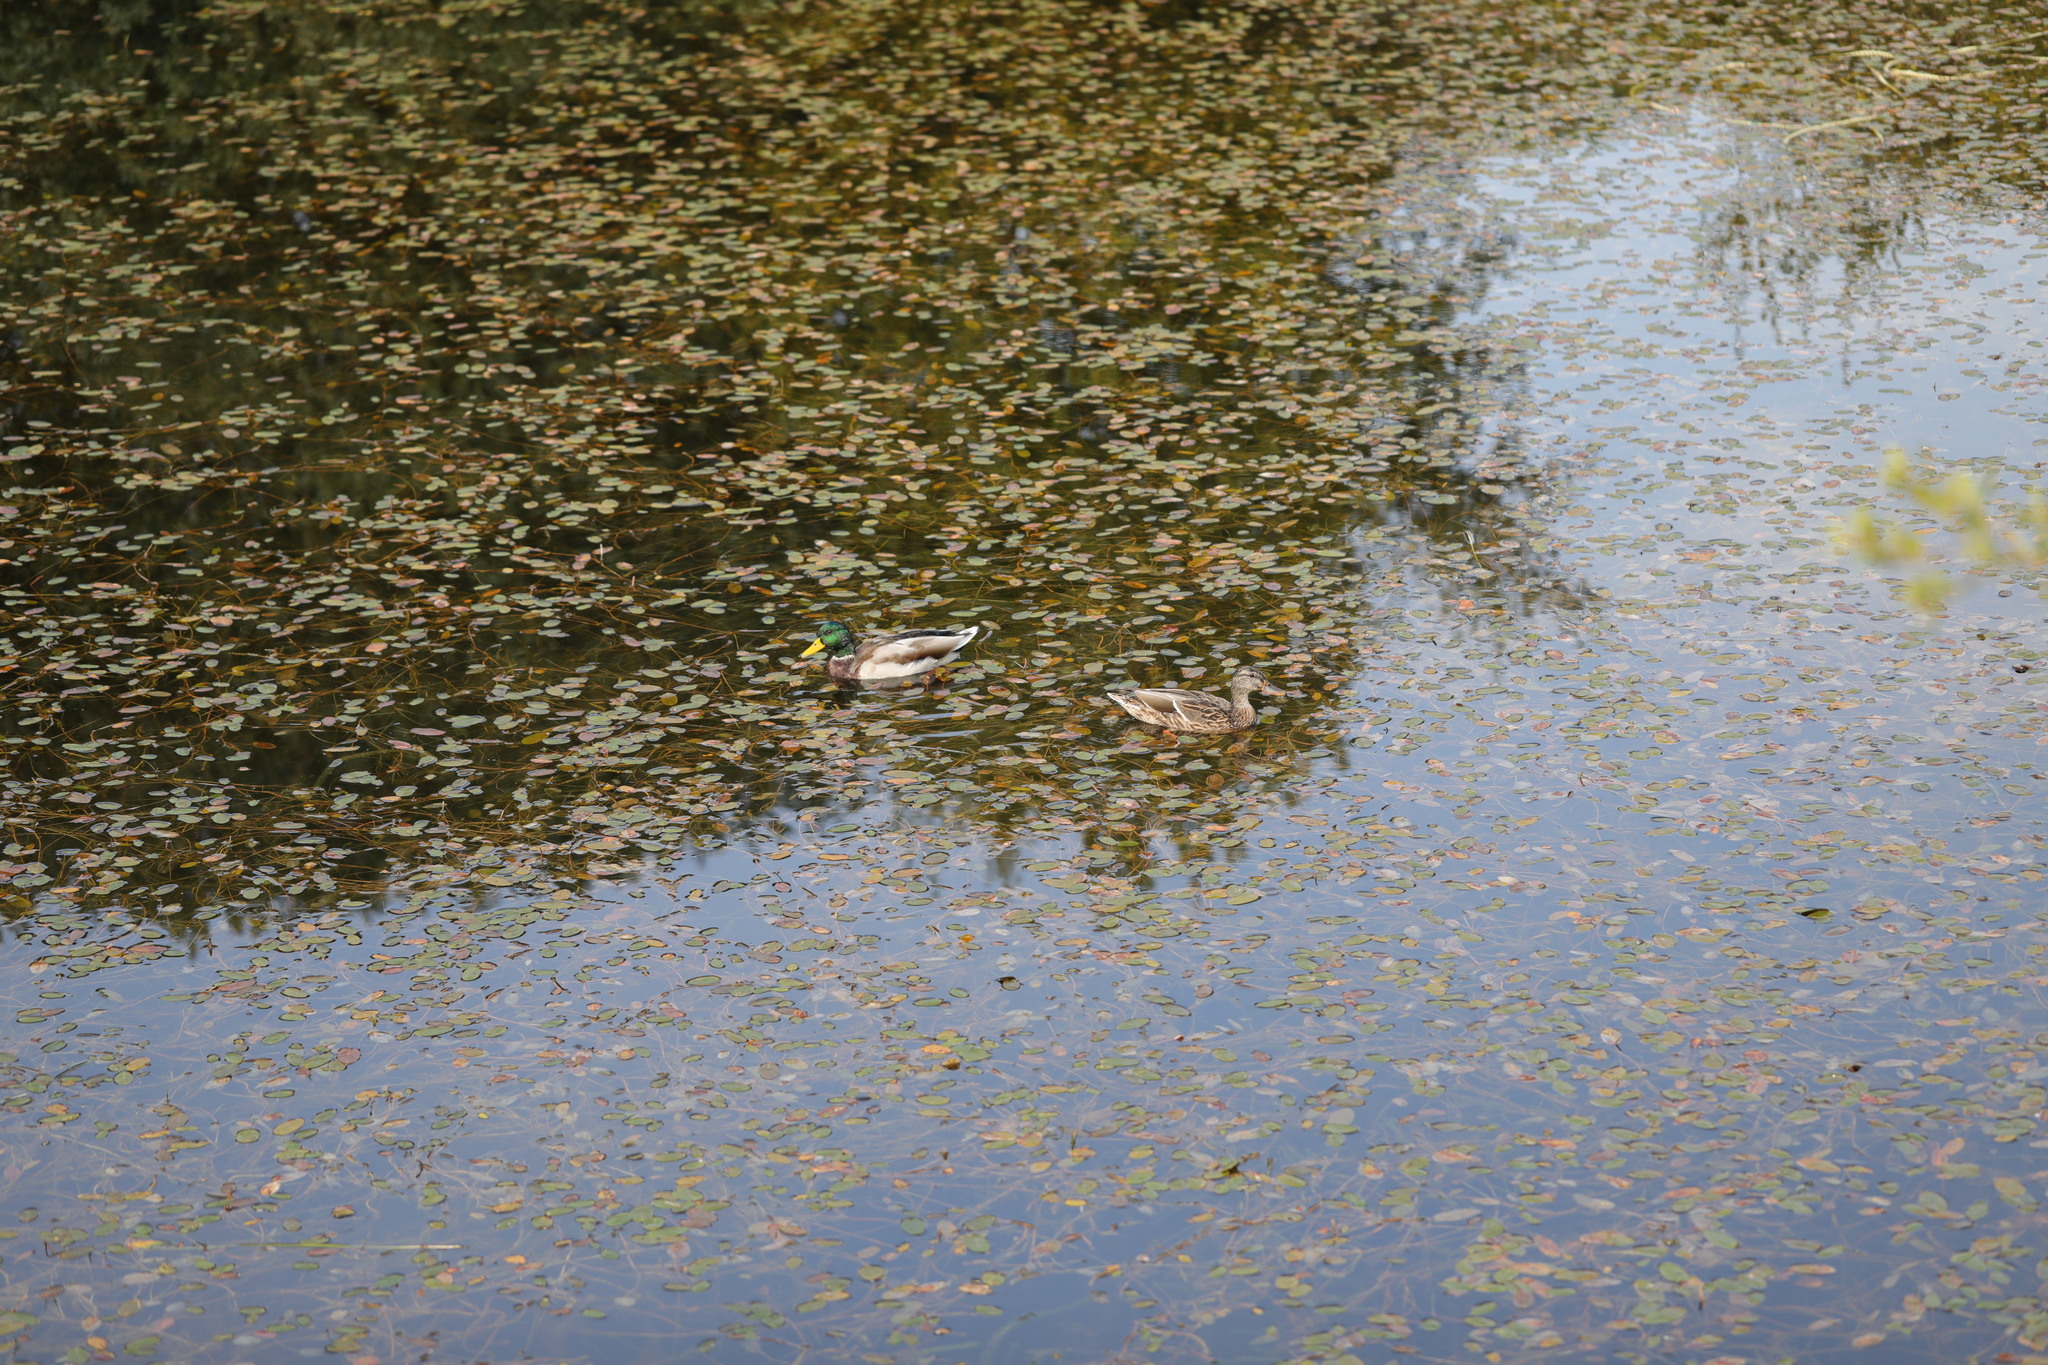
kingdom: Animalia
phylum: Chordata
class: Aves
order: Anseriformes
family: Anatidae
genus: Anas
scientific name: Anas platyrhynchos
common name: Mallard
